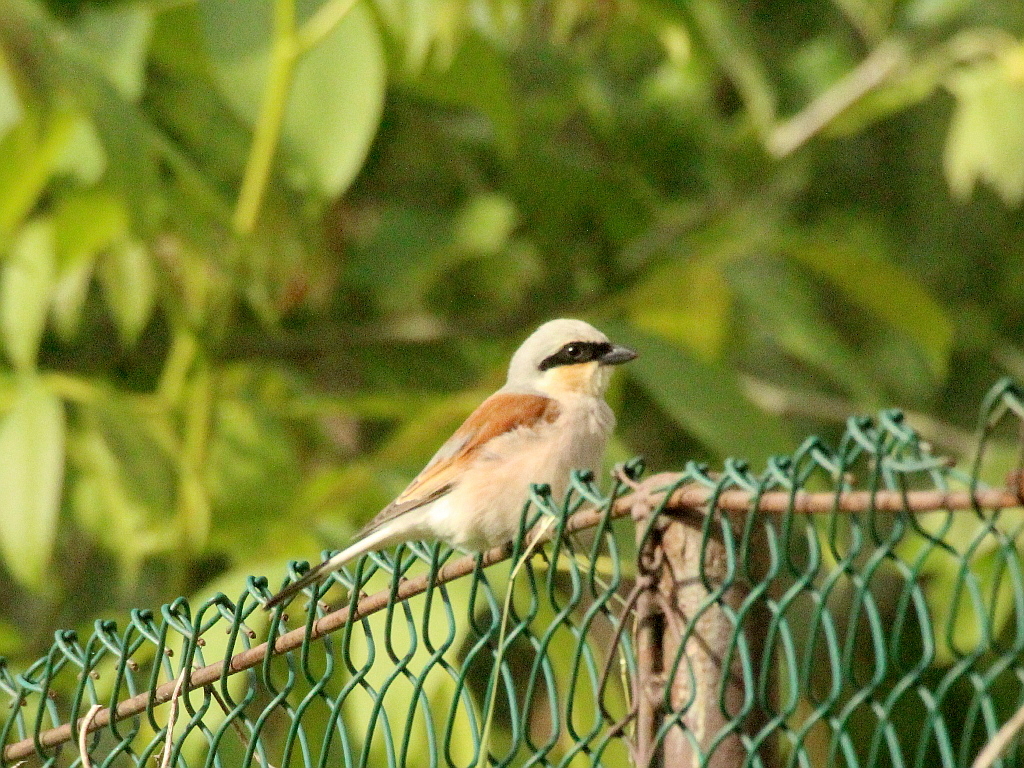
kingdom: Animalia
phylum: Chordata
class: Aves
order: Passeriformes
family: Laniidae
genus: Lanius
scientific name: Lanius collurio
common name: Red-backed shrike
